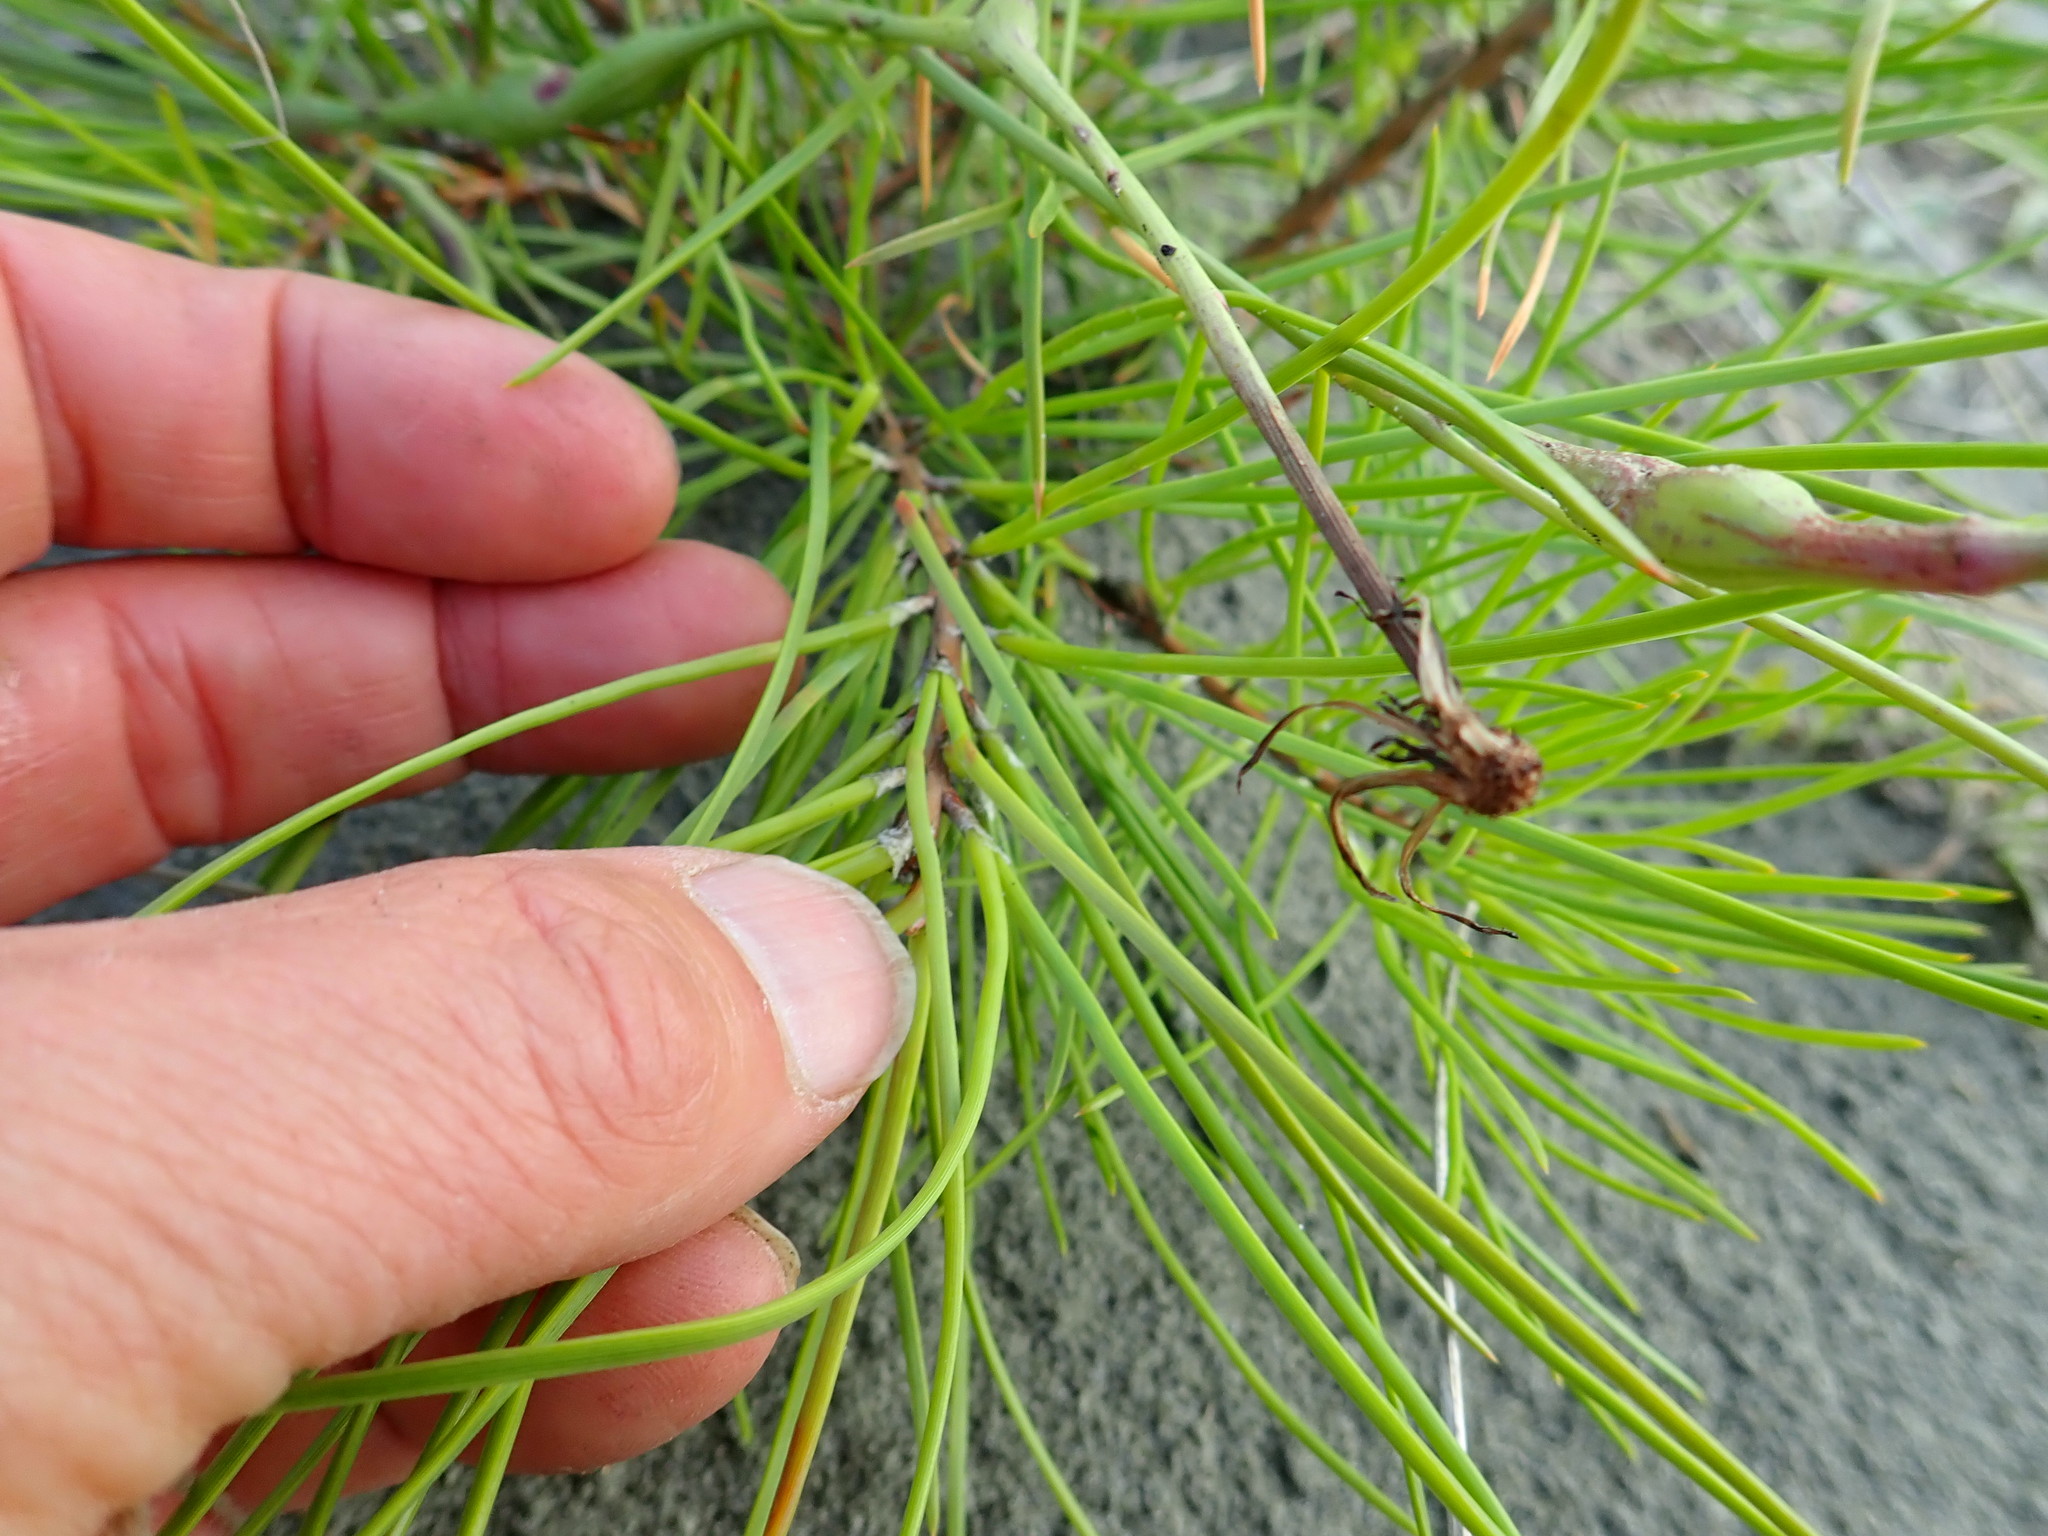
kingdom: Plantae
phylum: Tracheophyta
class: Pinopsida
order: Pinales
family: Pinaceae
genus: Pinus
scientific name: Pinus pinaster
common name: Maritime pine
